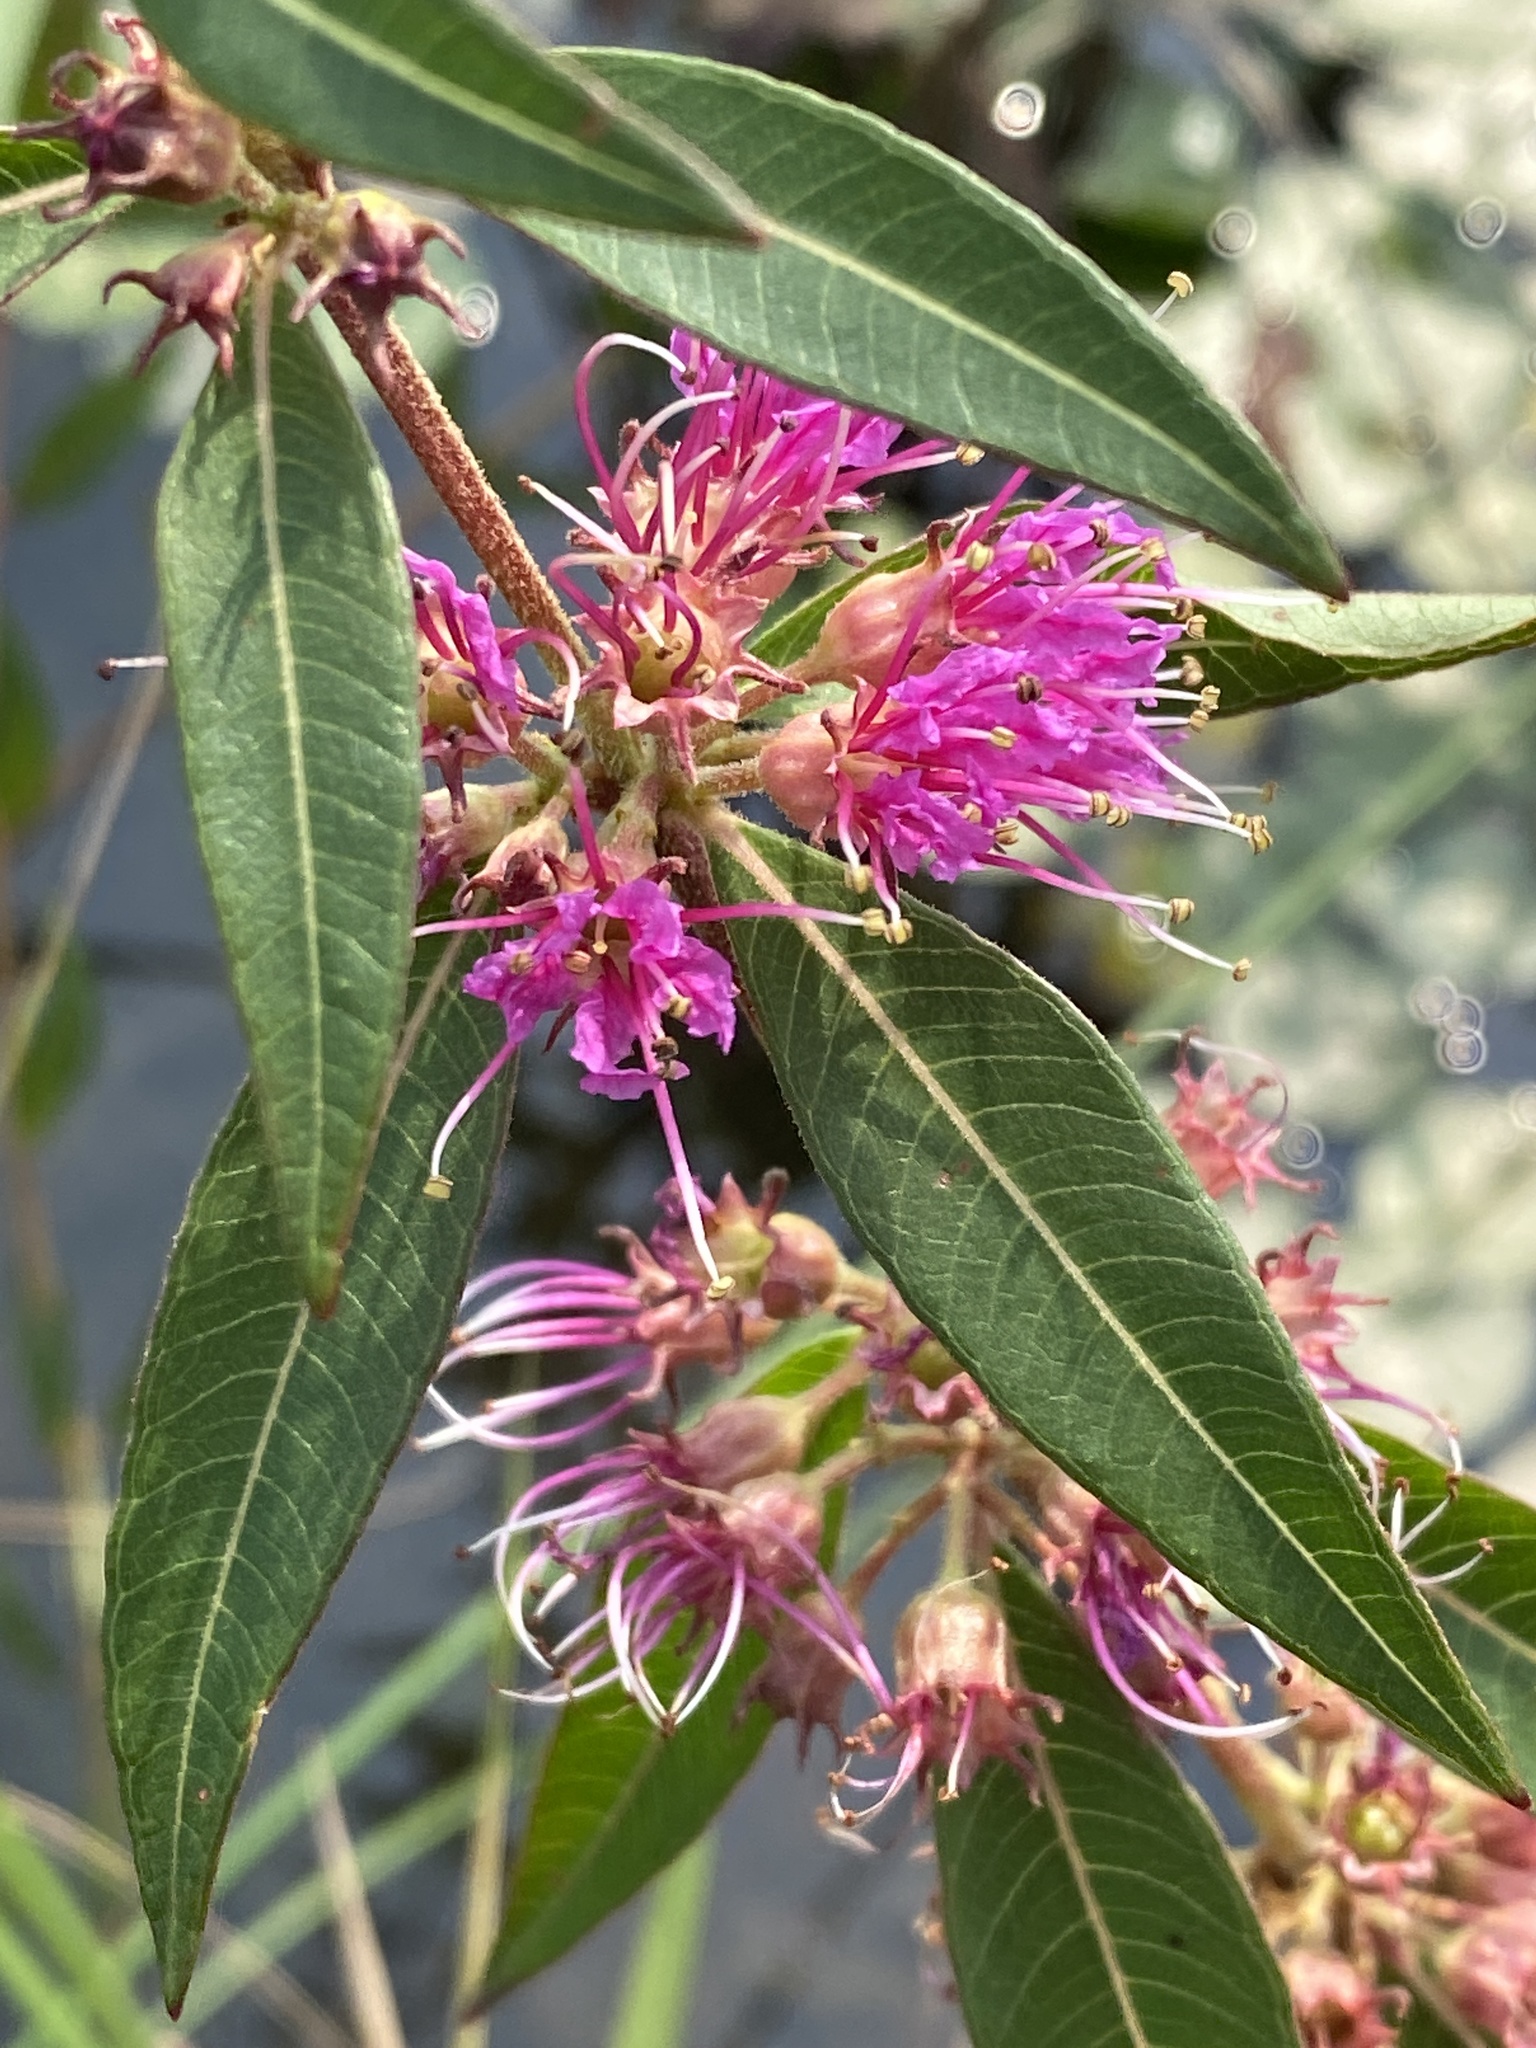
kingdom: Plantae
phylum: Tracheophyta
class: Magnoliopsida
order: Myrtales
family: Lythraceae
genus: Decodon
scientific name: Decodon verticillatus
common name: Hairy swamp loosestrife
